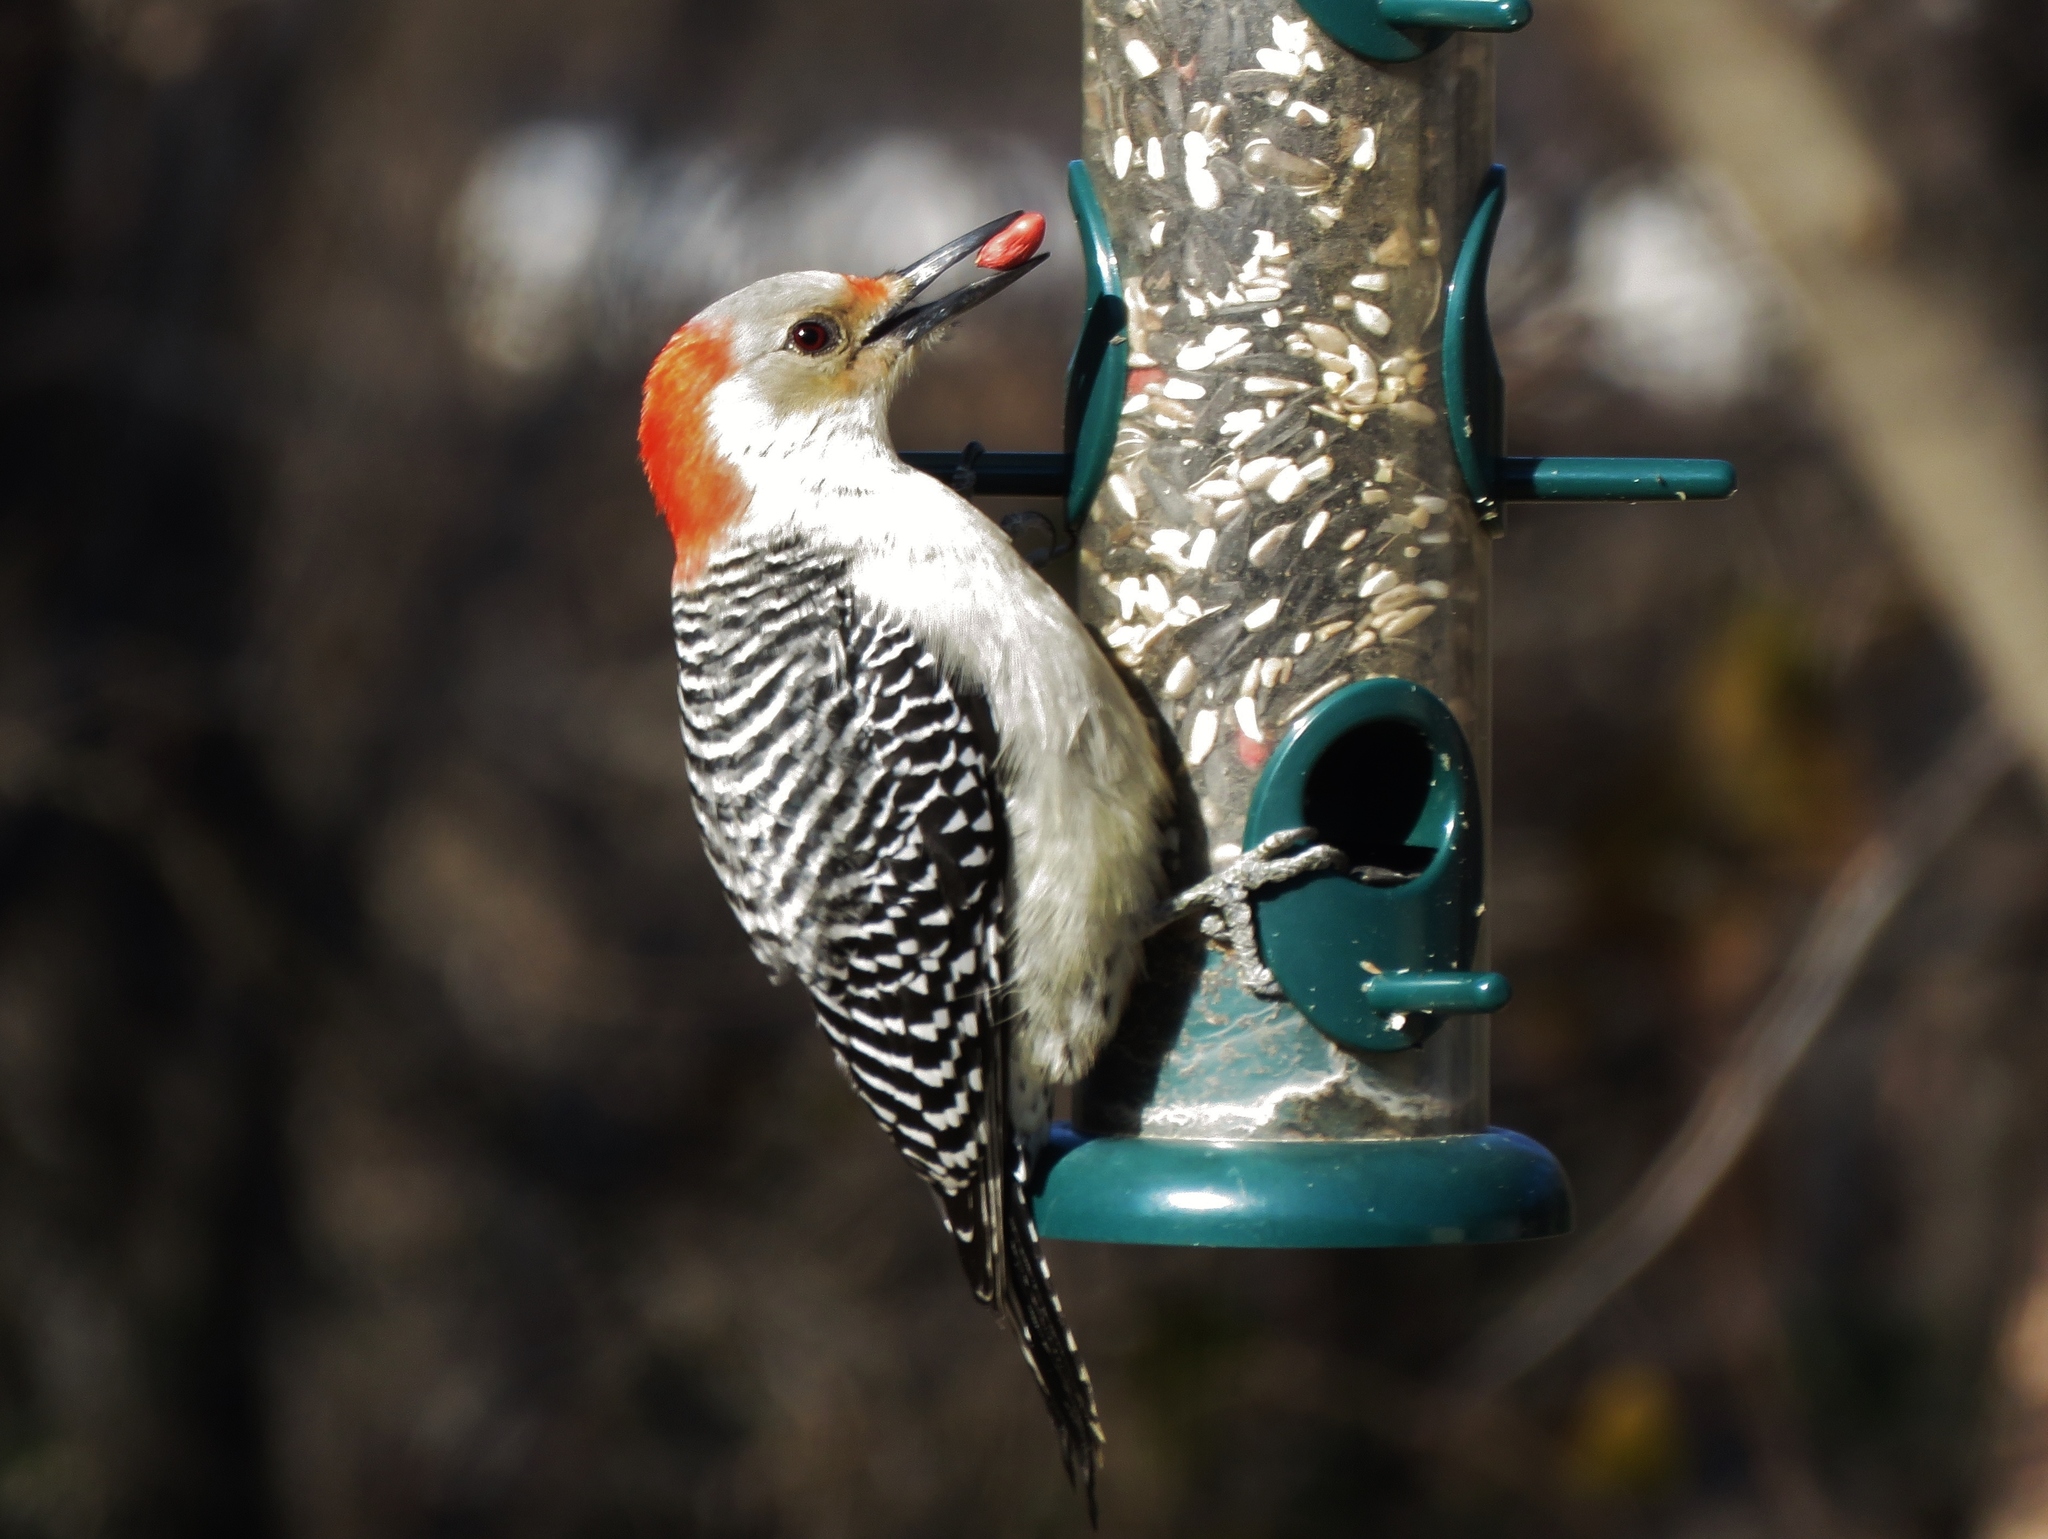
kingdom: Animalia
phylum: Chordata
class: Aves
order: Piciformes
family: Picidae
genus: Melanerpes
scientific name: Melanerpes carolinus
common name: Red-bellied woodpecker
